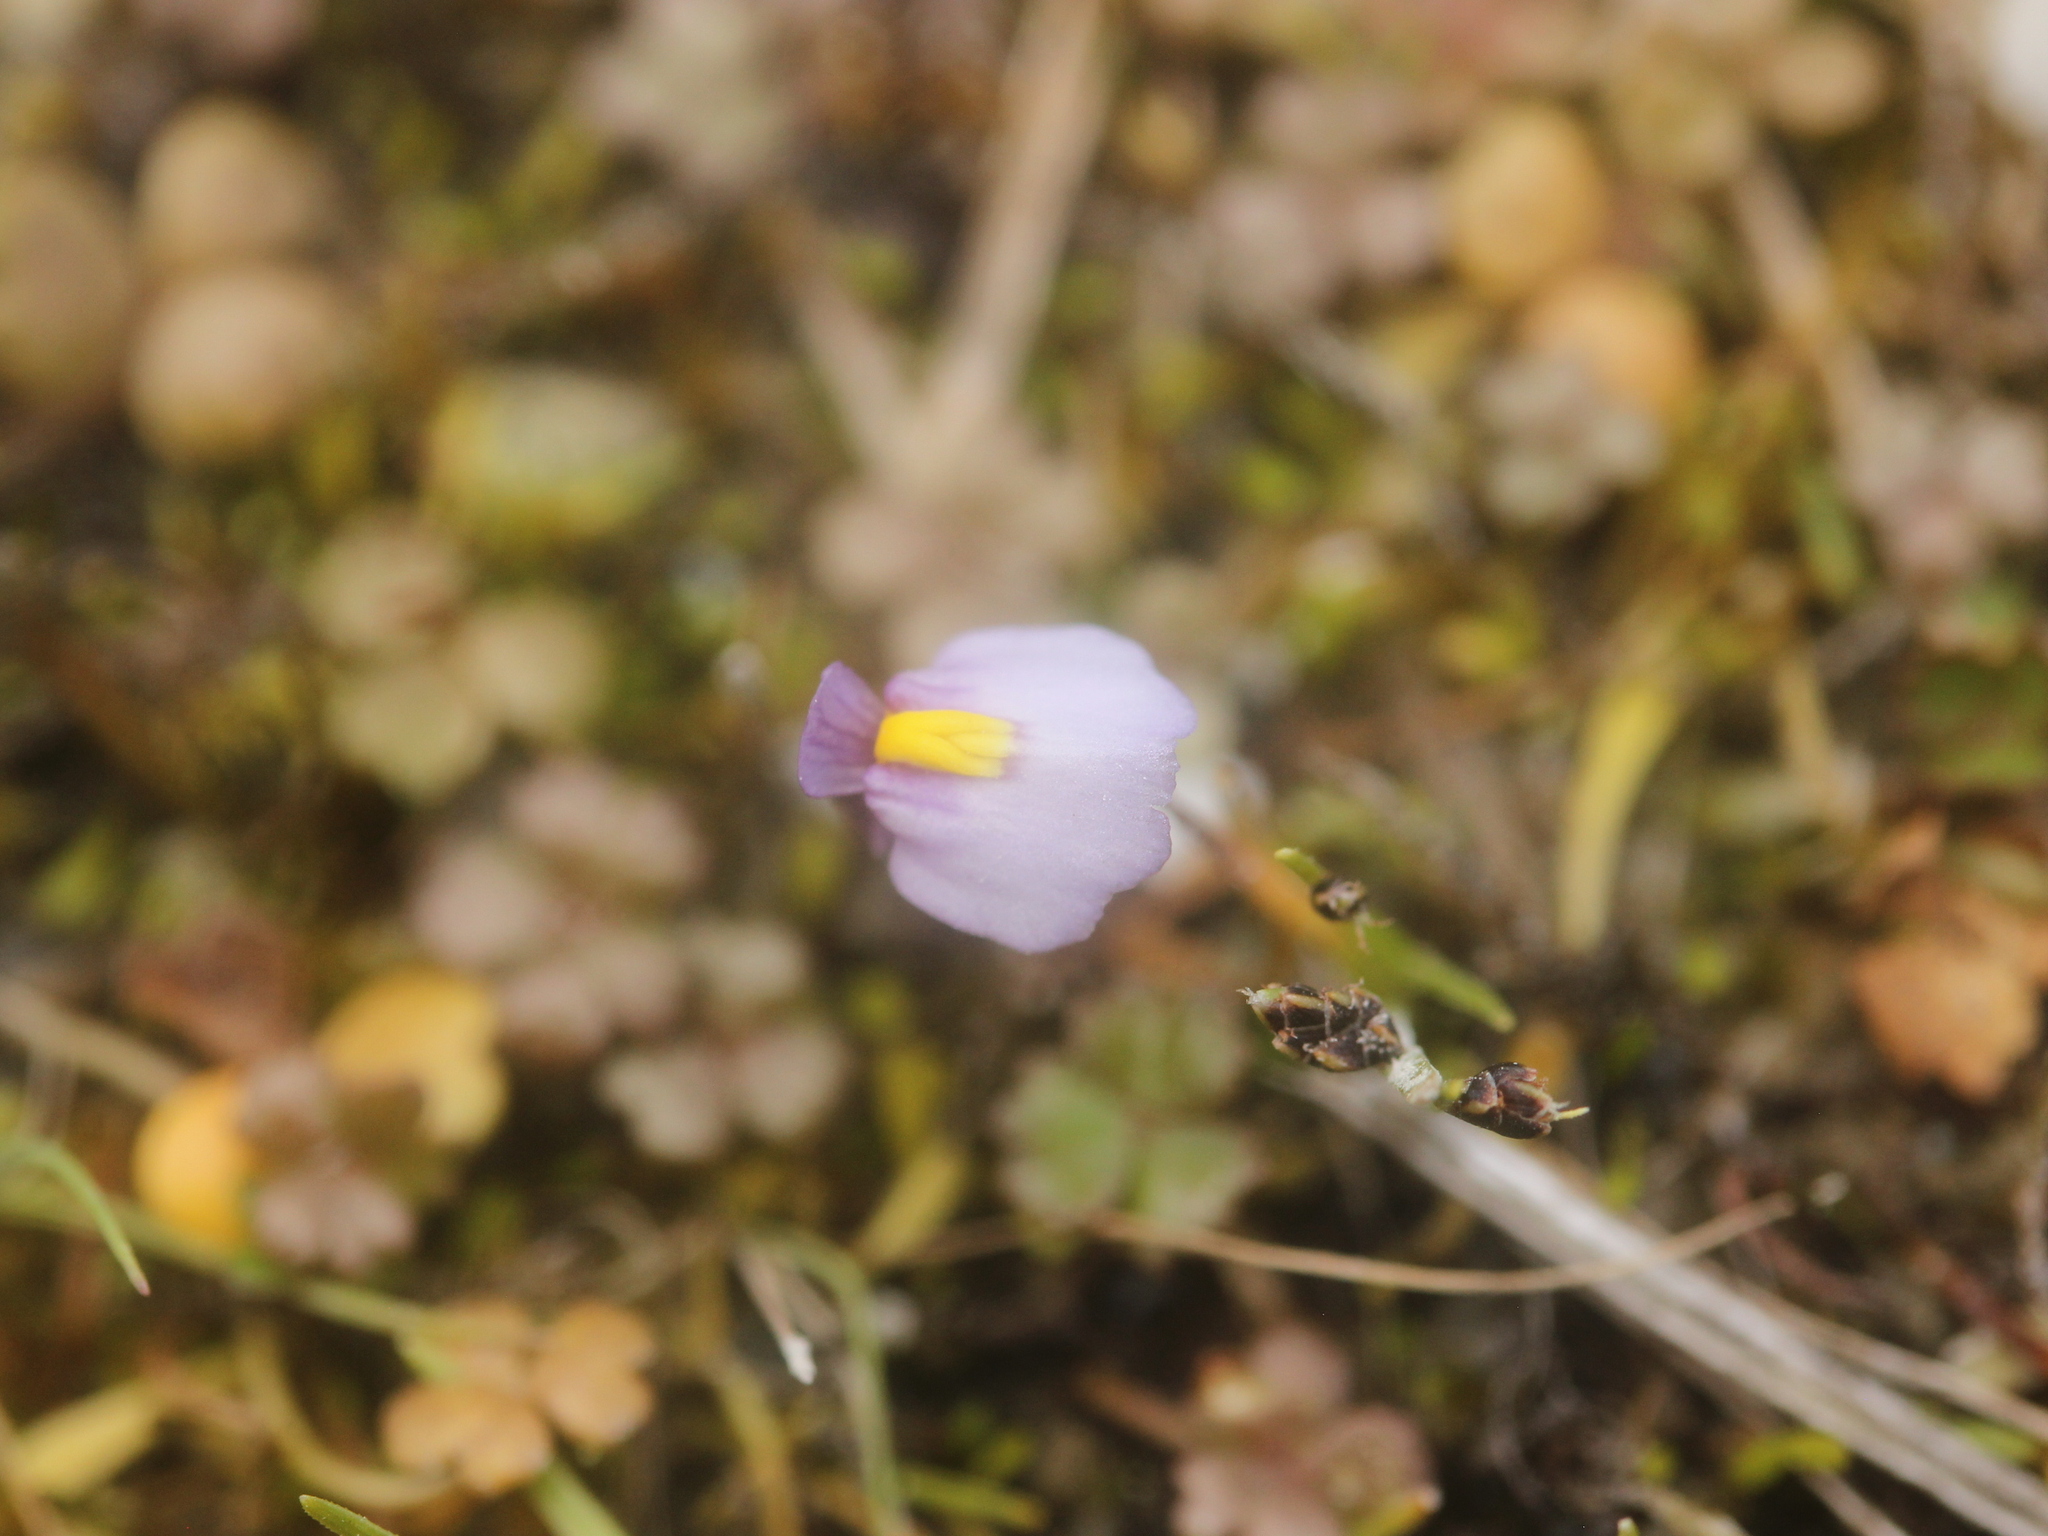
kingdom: Plantae
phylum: Tracheophyta
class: Magnoliopsida
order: Lamiales
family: Lentibulariaceae
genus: Utricularia
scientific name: Utricularia dichotoma
